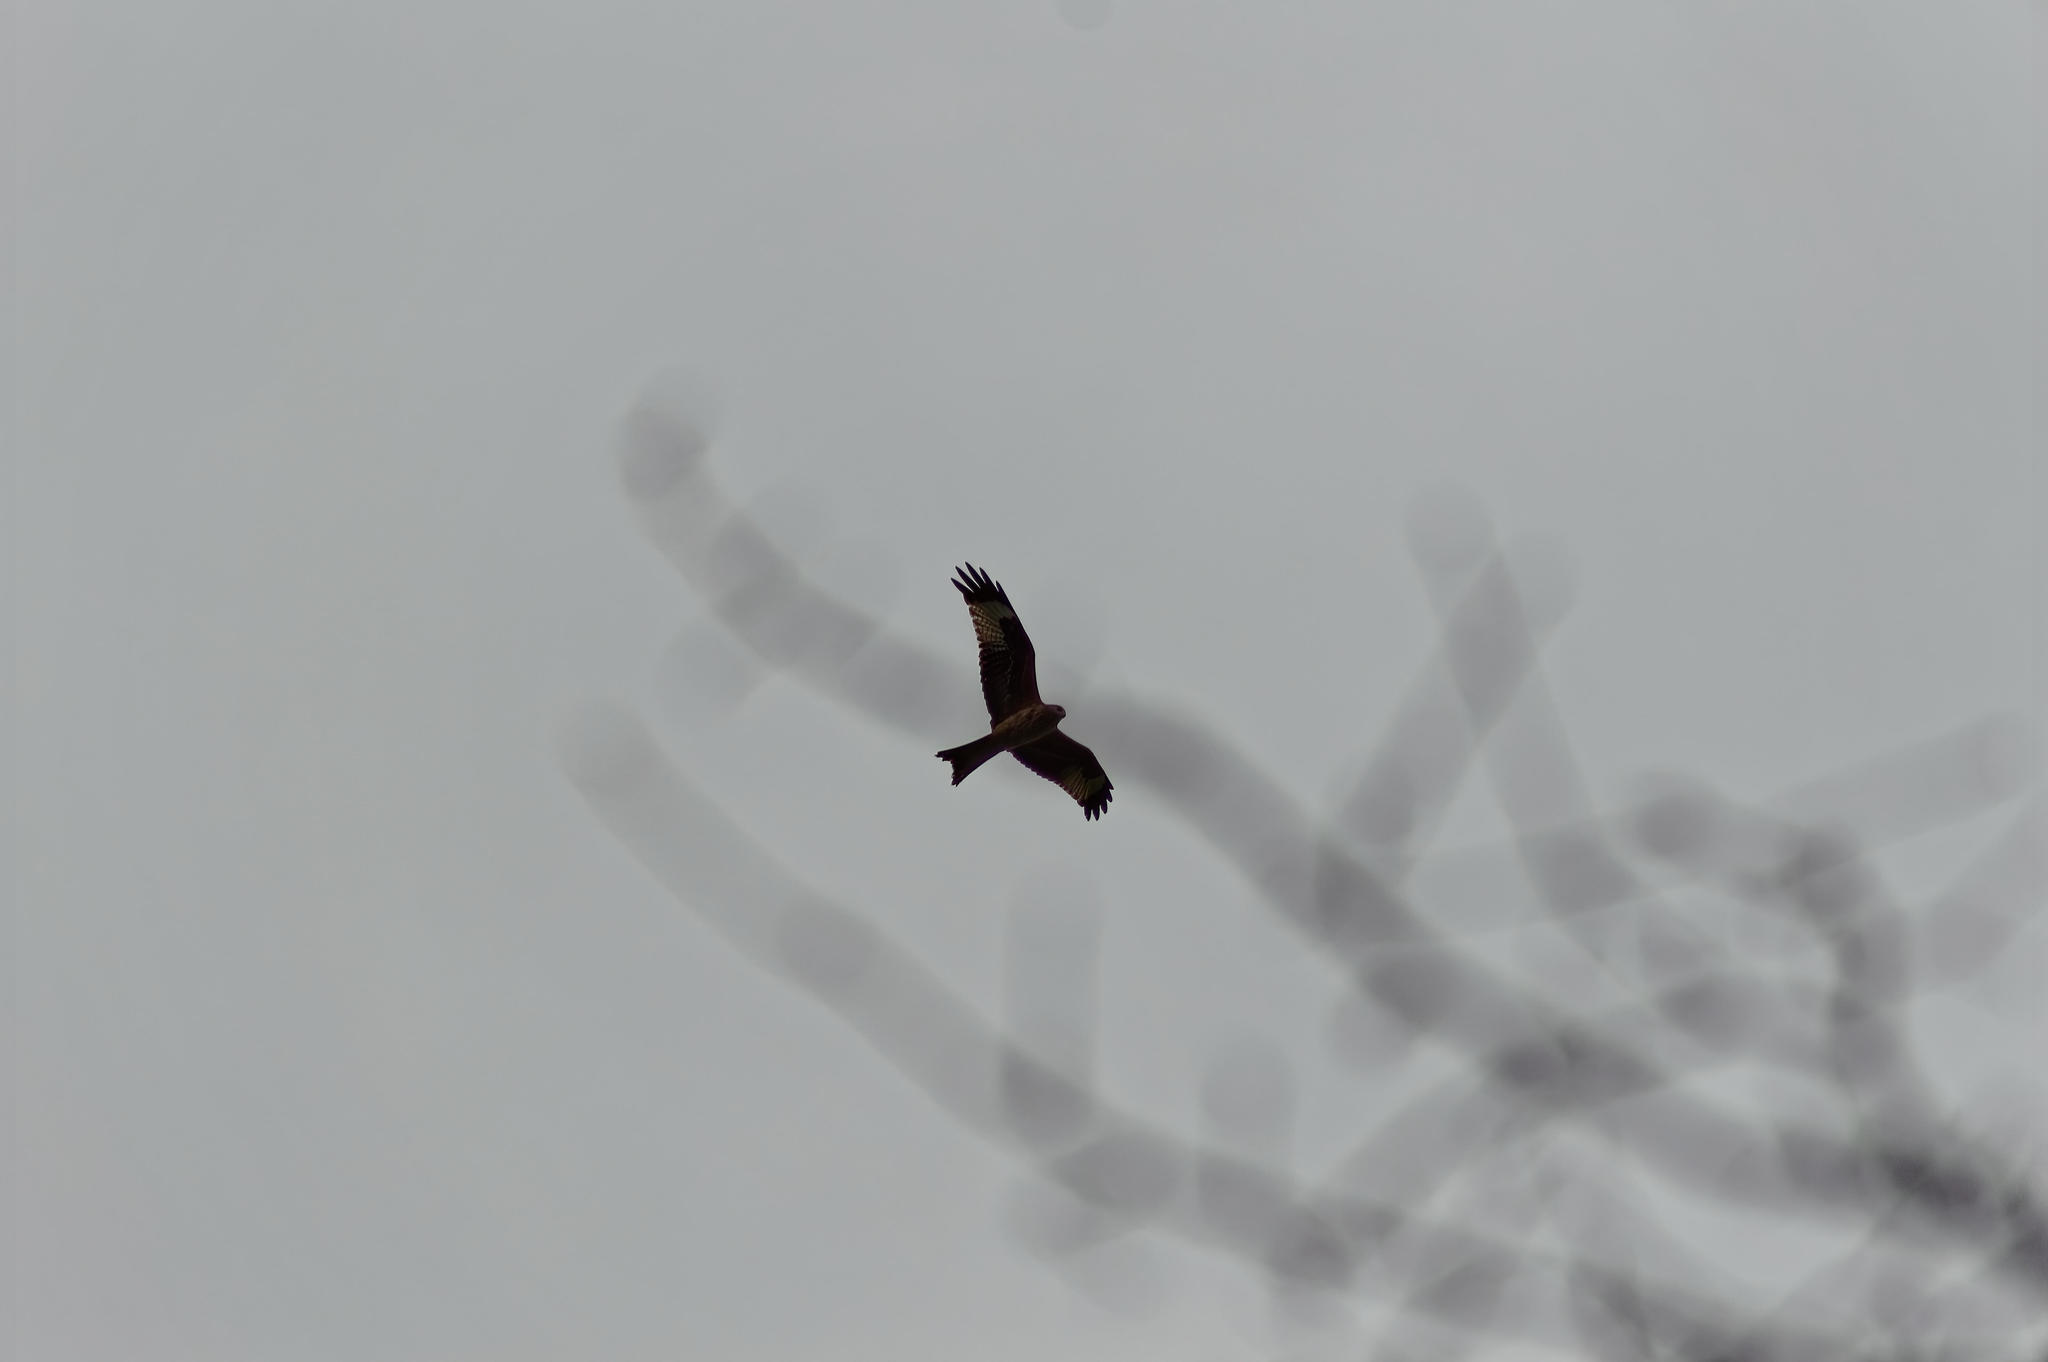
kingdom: Animalia
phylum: Chordata
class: Aves
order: Accipitriformes
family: Accipitridae
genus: Milvus
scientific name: Milvus milvus
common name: Red kite
